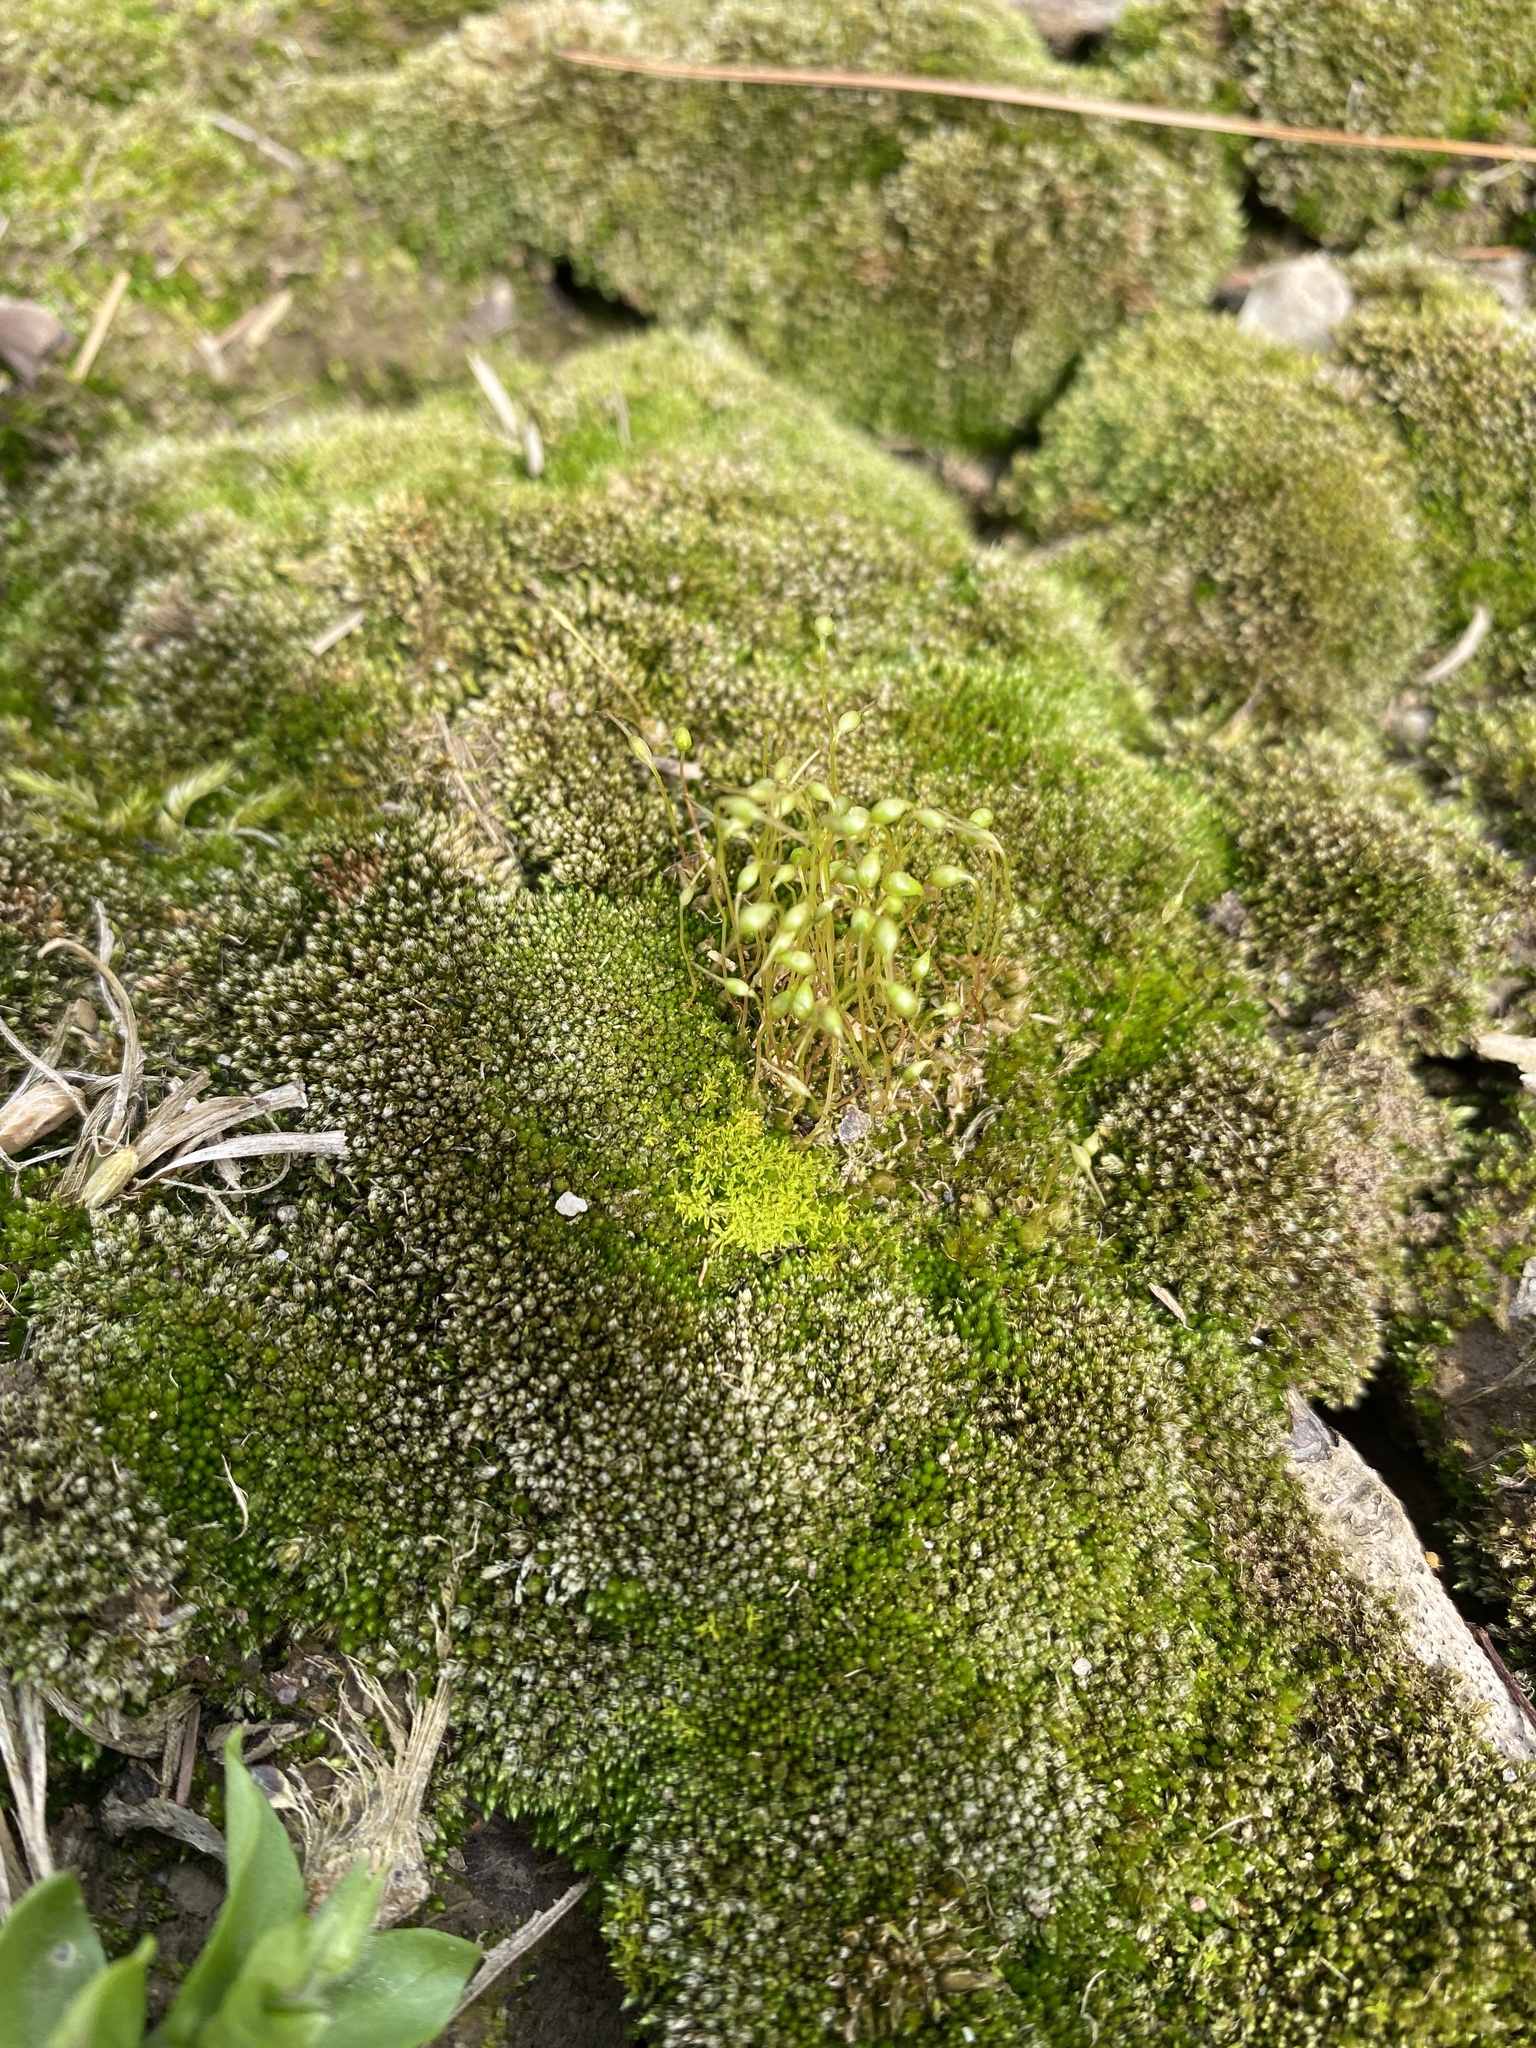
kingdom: Plantae
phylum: Bryophyta
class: Bryopsida
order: Bryales
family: Bryaceae
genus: Bryum
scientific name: Bryum argenteum
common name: Silver-moss
